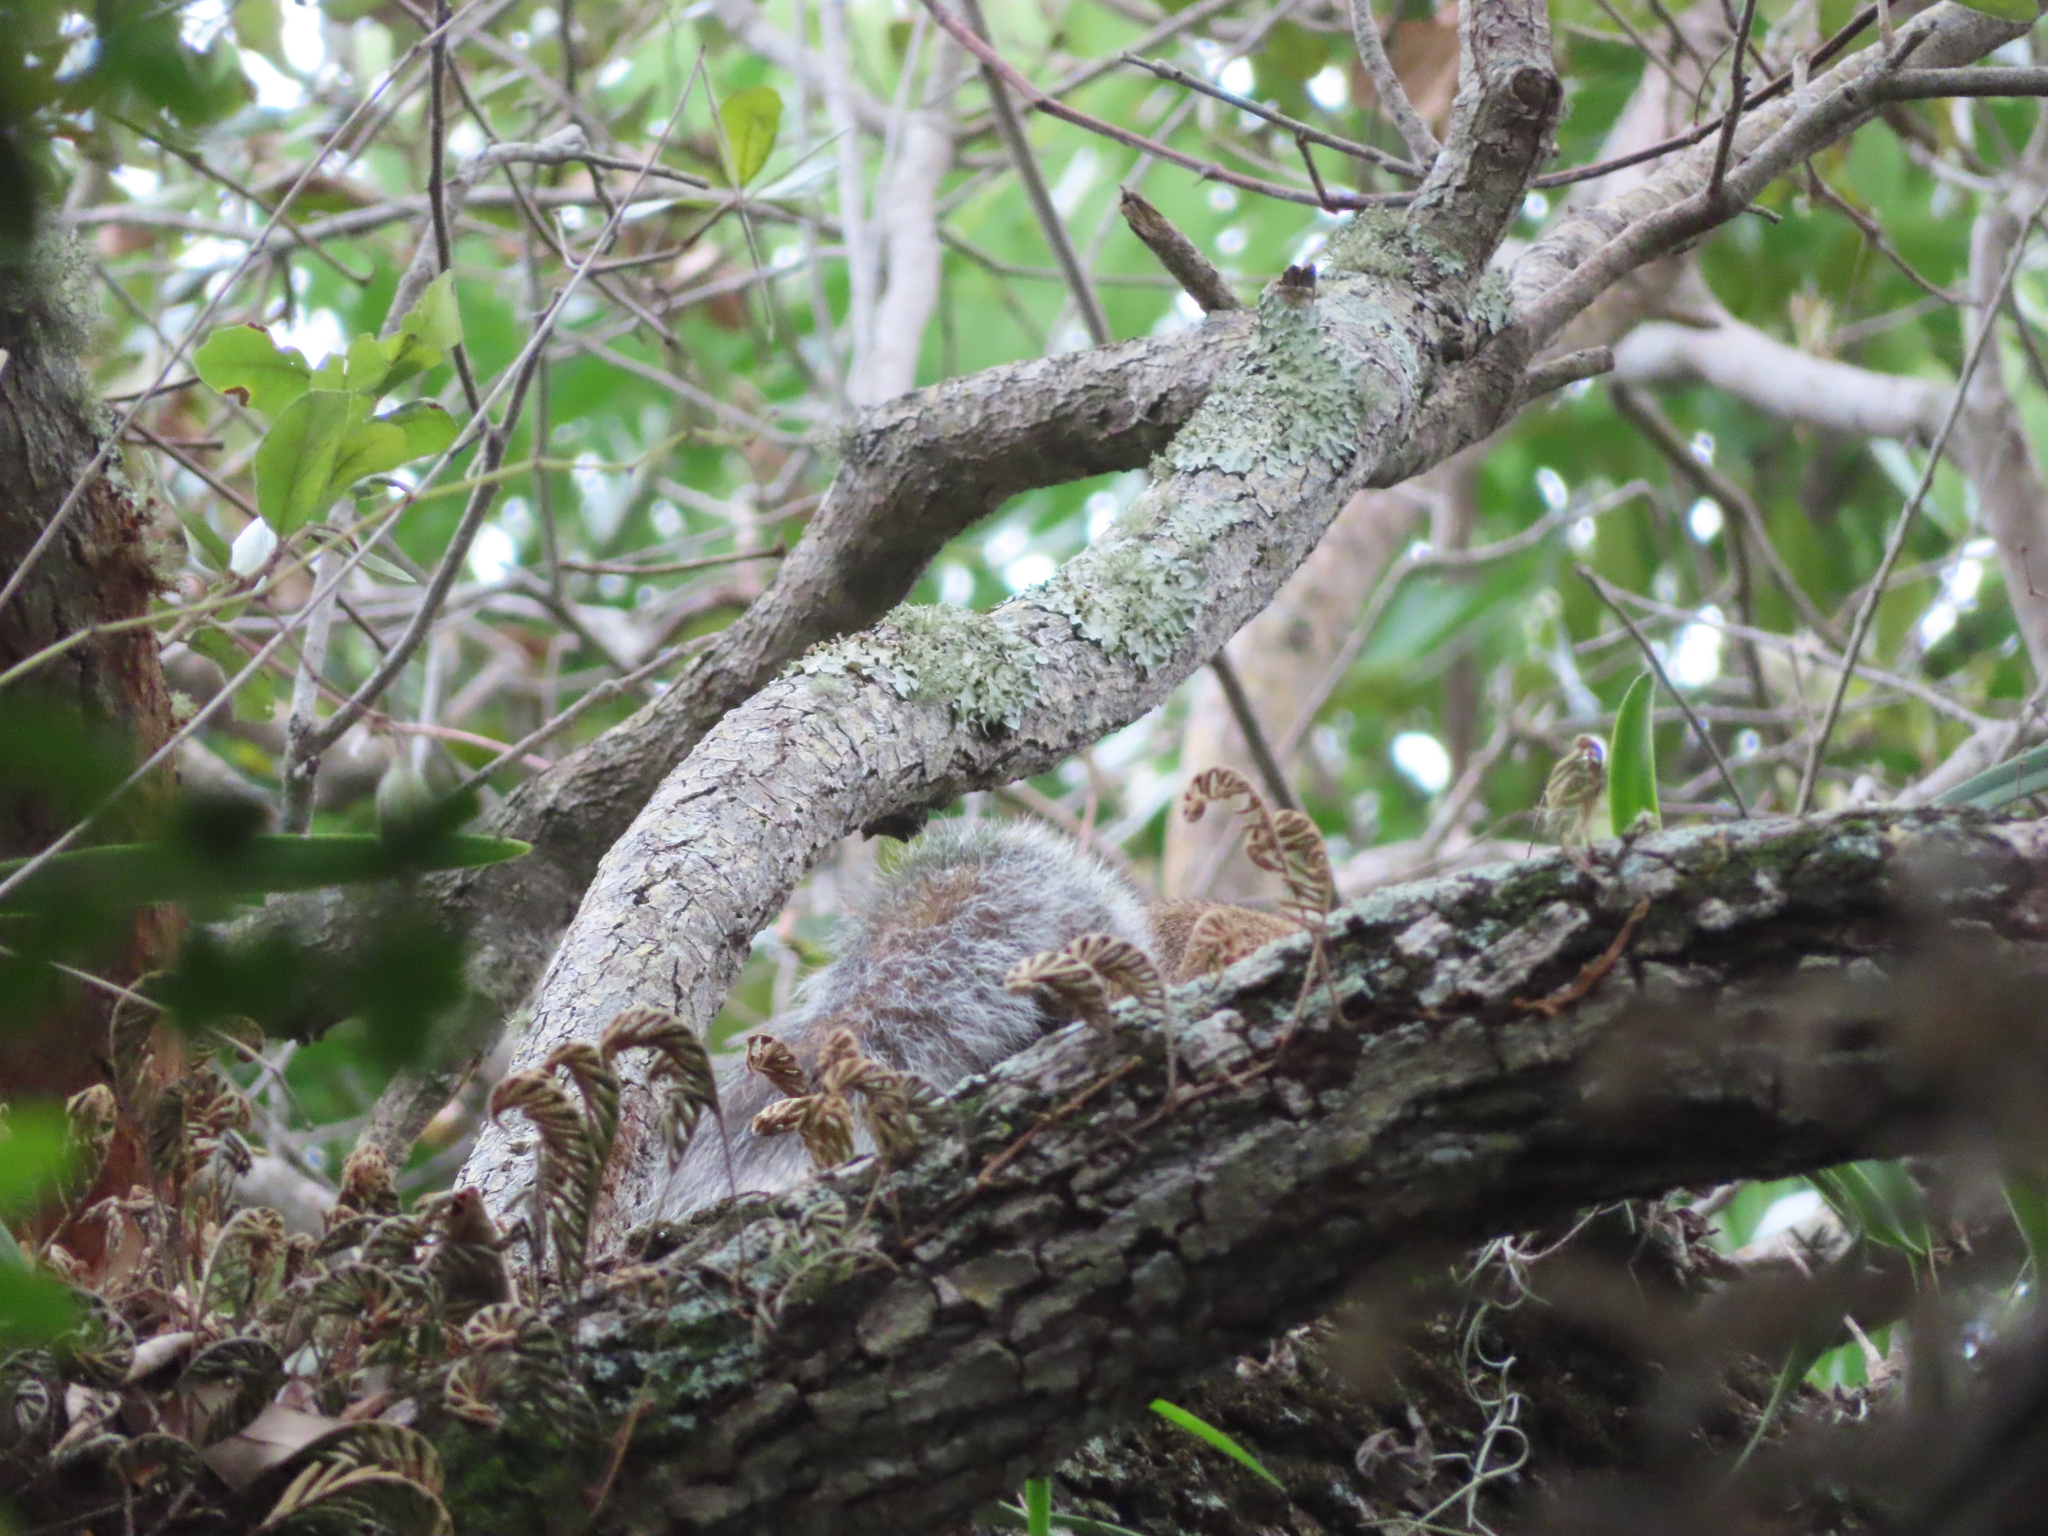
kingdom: Animalia
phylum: Chordata
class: Mammalia
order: Rodentia
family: Sciuridae
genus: Sciurus
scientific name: Sciurus carolinensis
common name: Eastern gray squirrel
